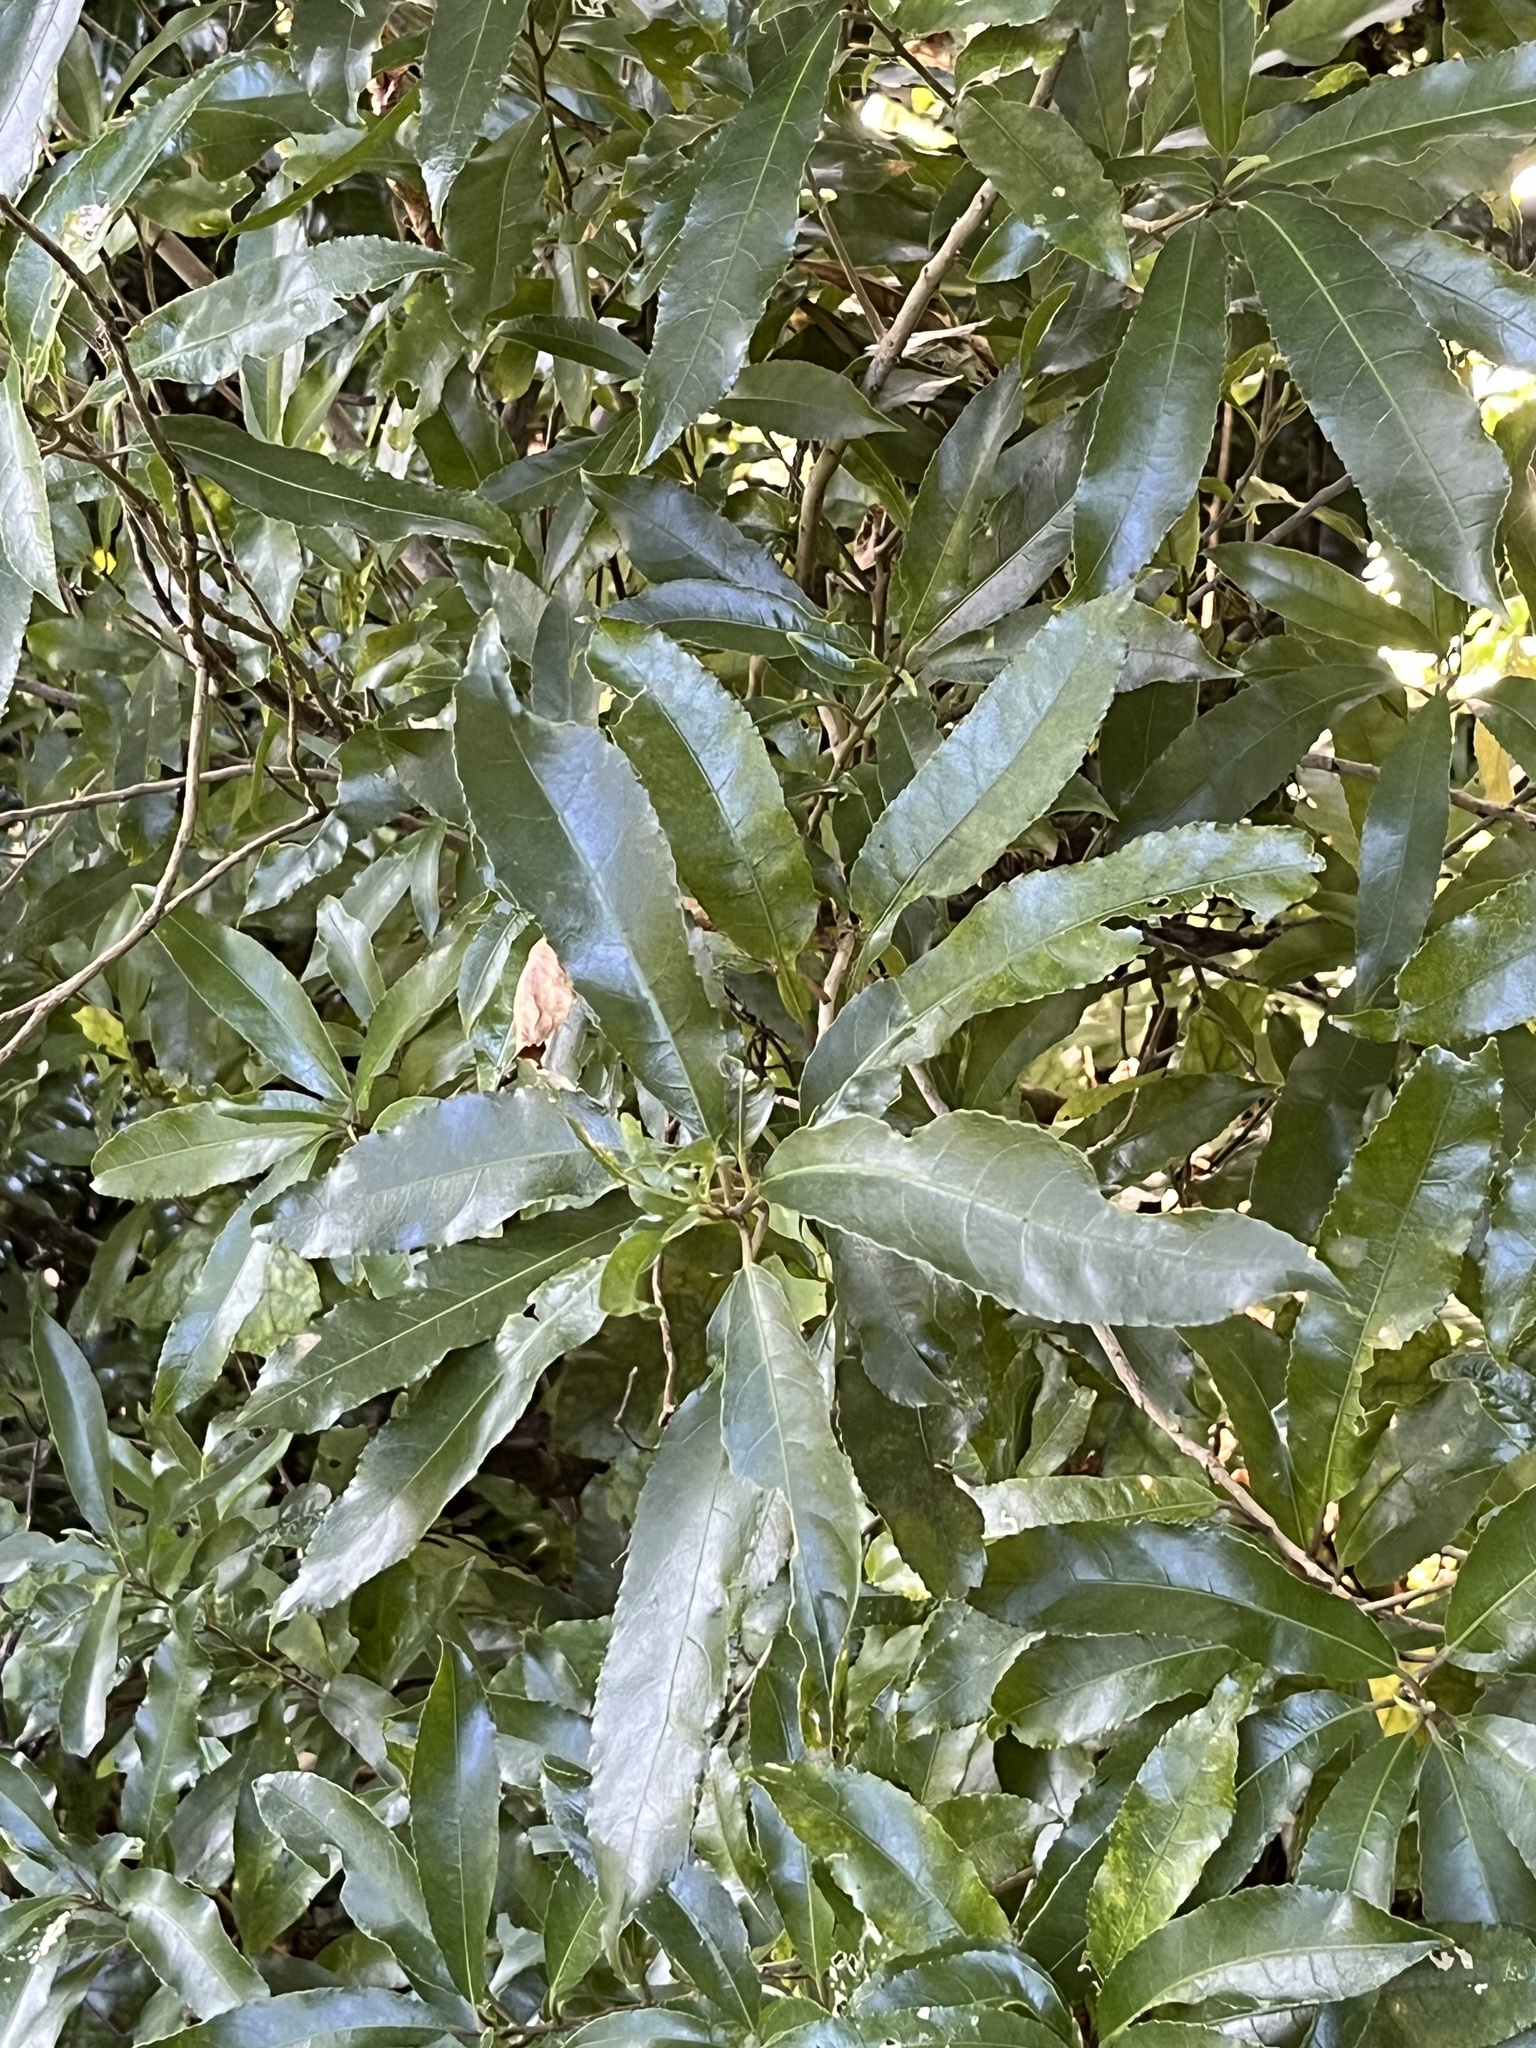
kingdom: Plantae
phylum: Tracheophyta
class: Magnoliopsida
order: Malpighiales
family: Violaceae
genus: Melicytus
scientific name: Melicytus ramiflorus
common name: Mahoe
